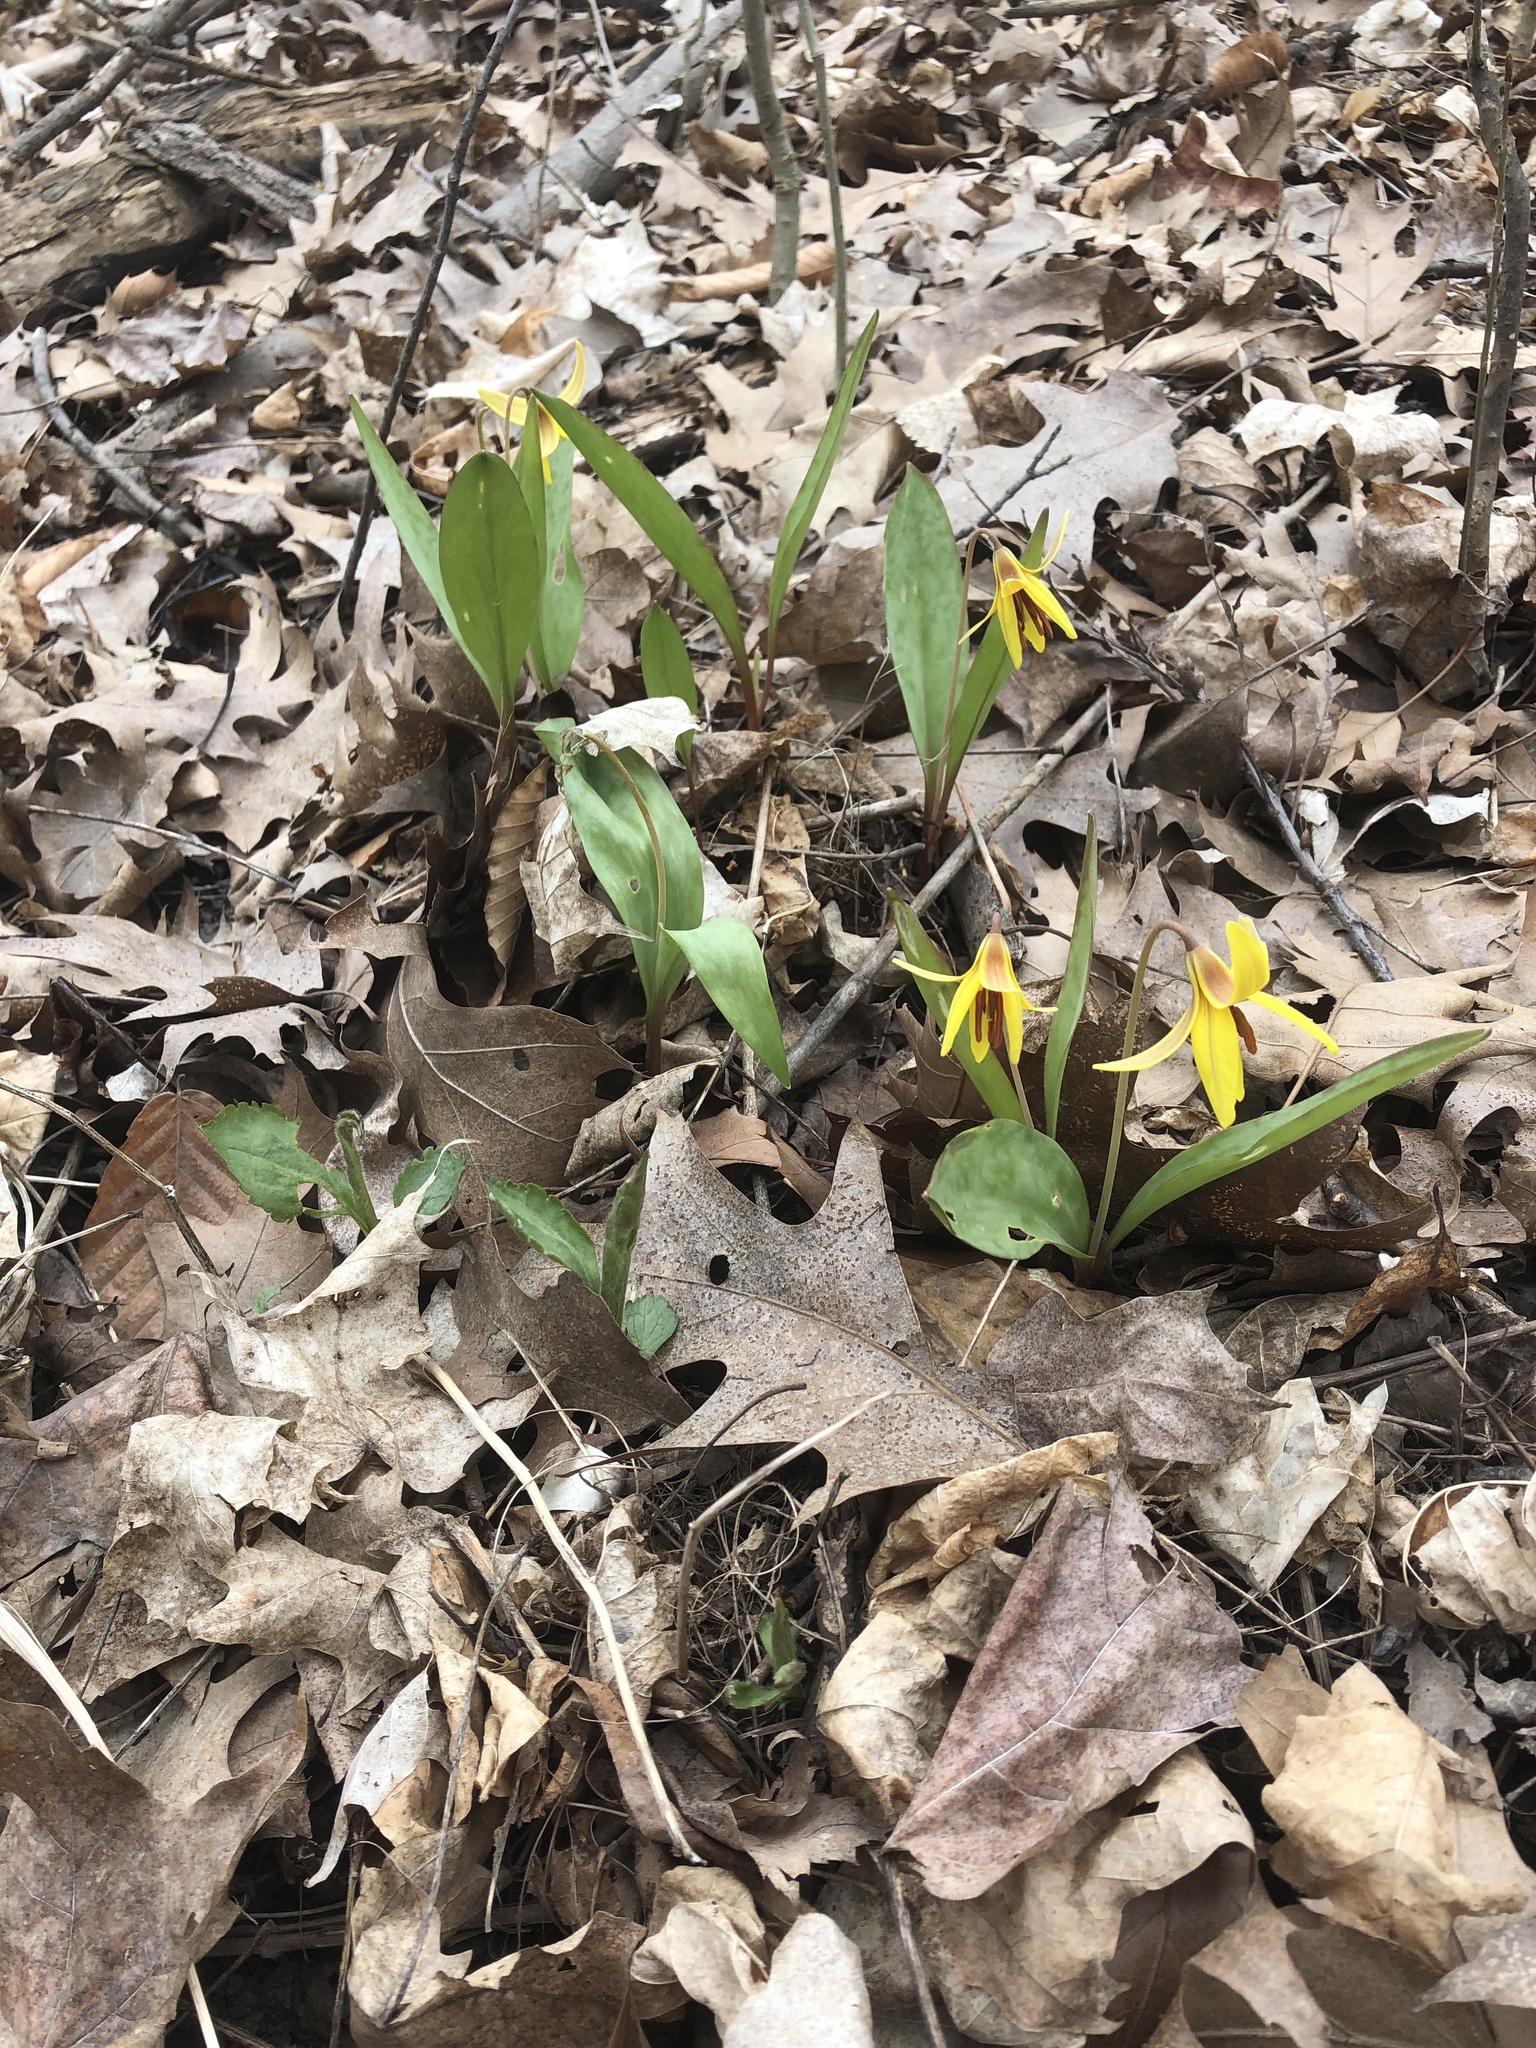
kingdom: Plantae
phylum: Tracheophyta
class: Liliopsida
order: Liliales
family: Liliaceae
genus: Erythronium
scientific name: Erythronium americanum
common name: Yellow adder's-tongue
